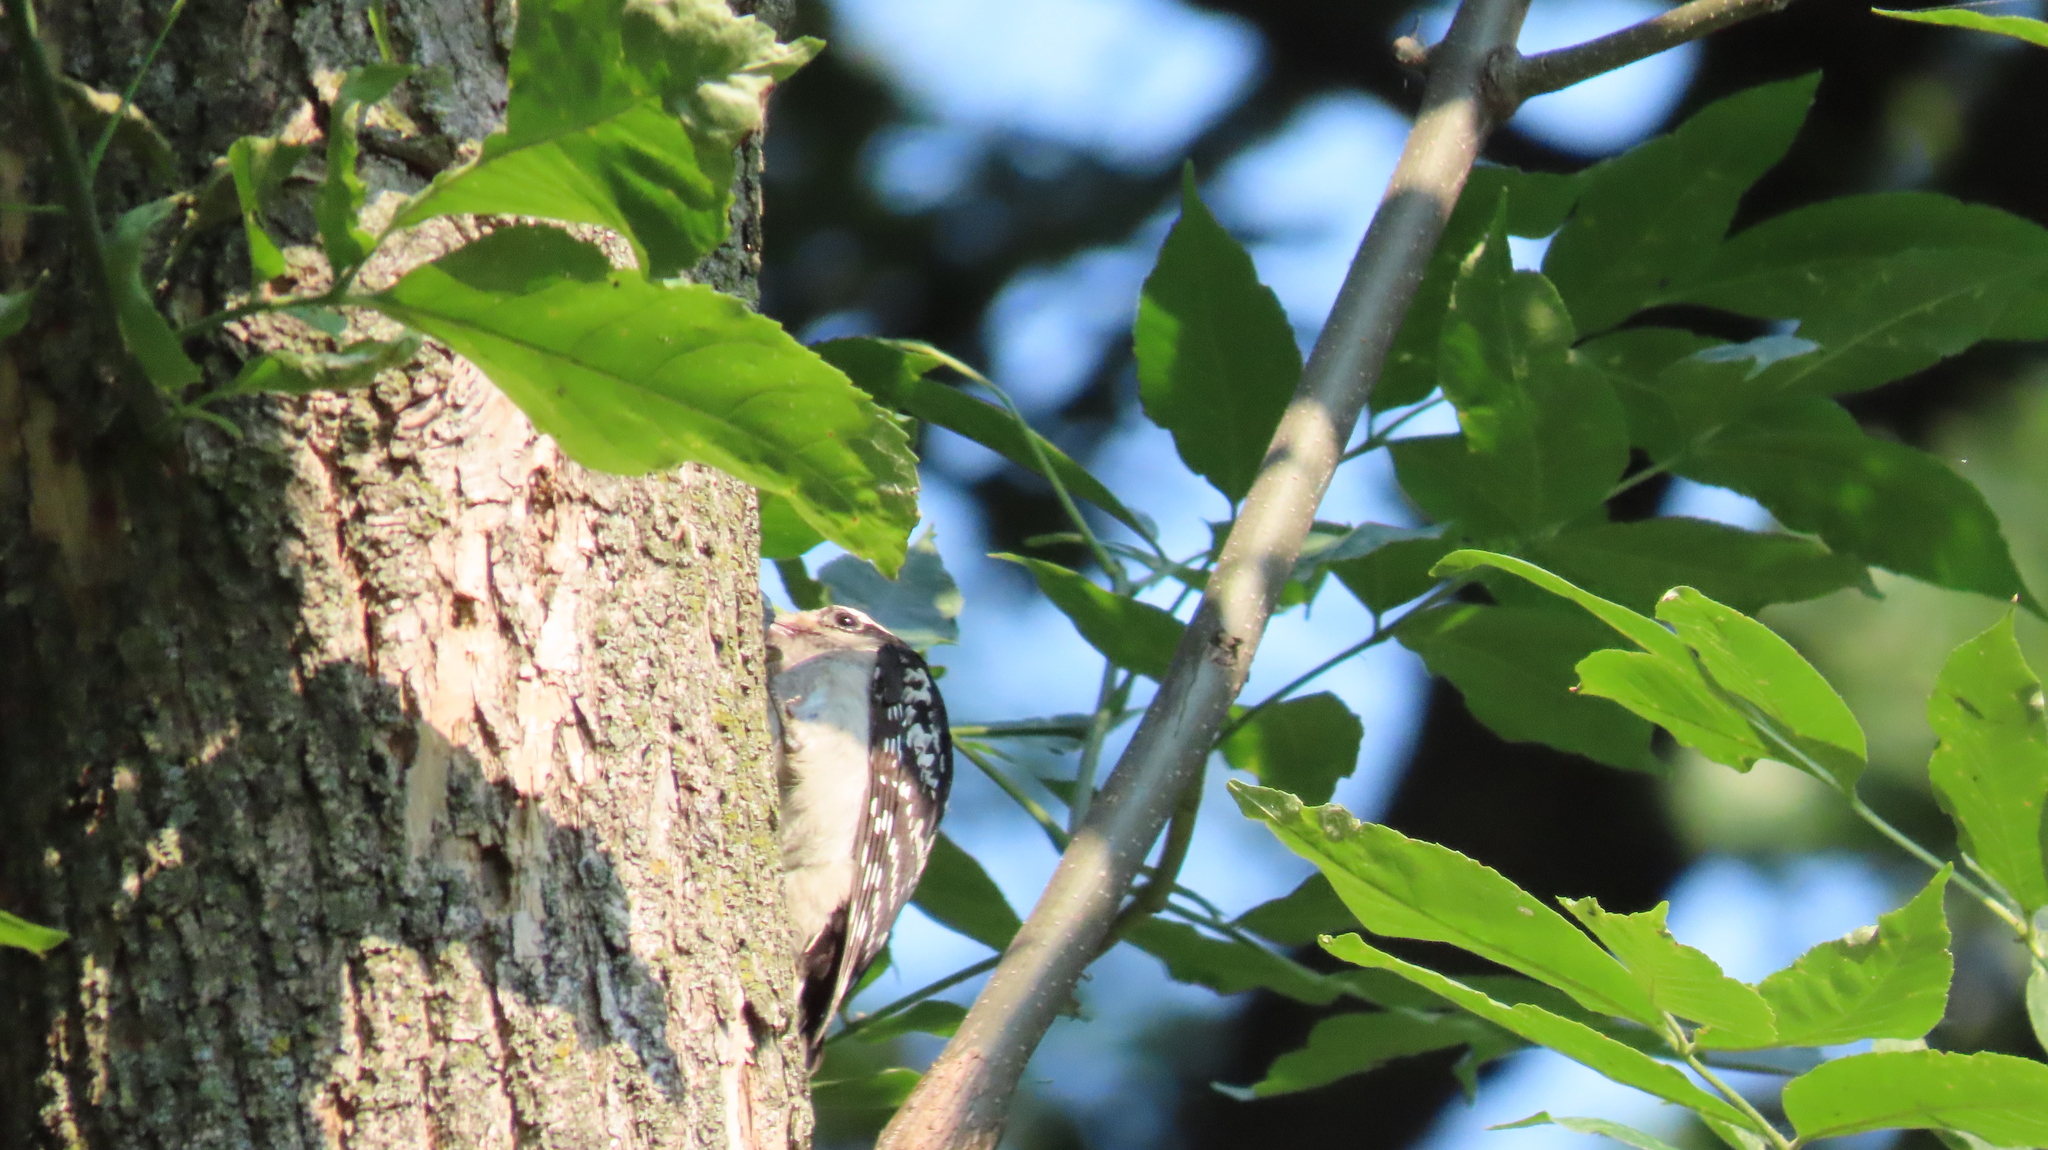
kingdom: Animalia
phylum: Chordata
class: Aves
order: Piciformes
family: Picidae
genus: Dryobates
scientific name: Dryobates pubescens
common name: Downy woodpecker
